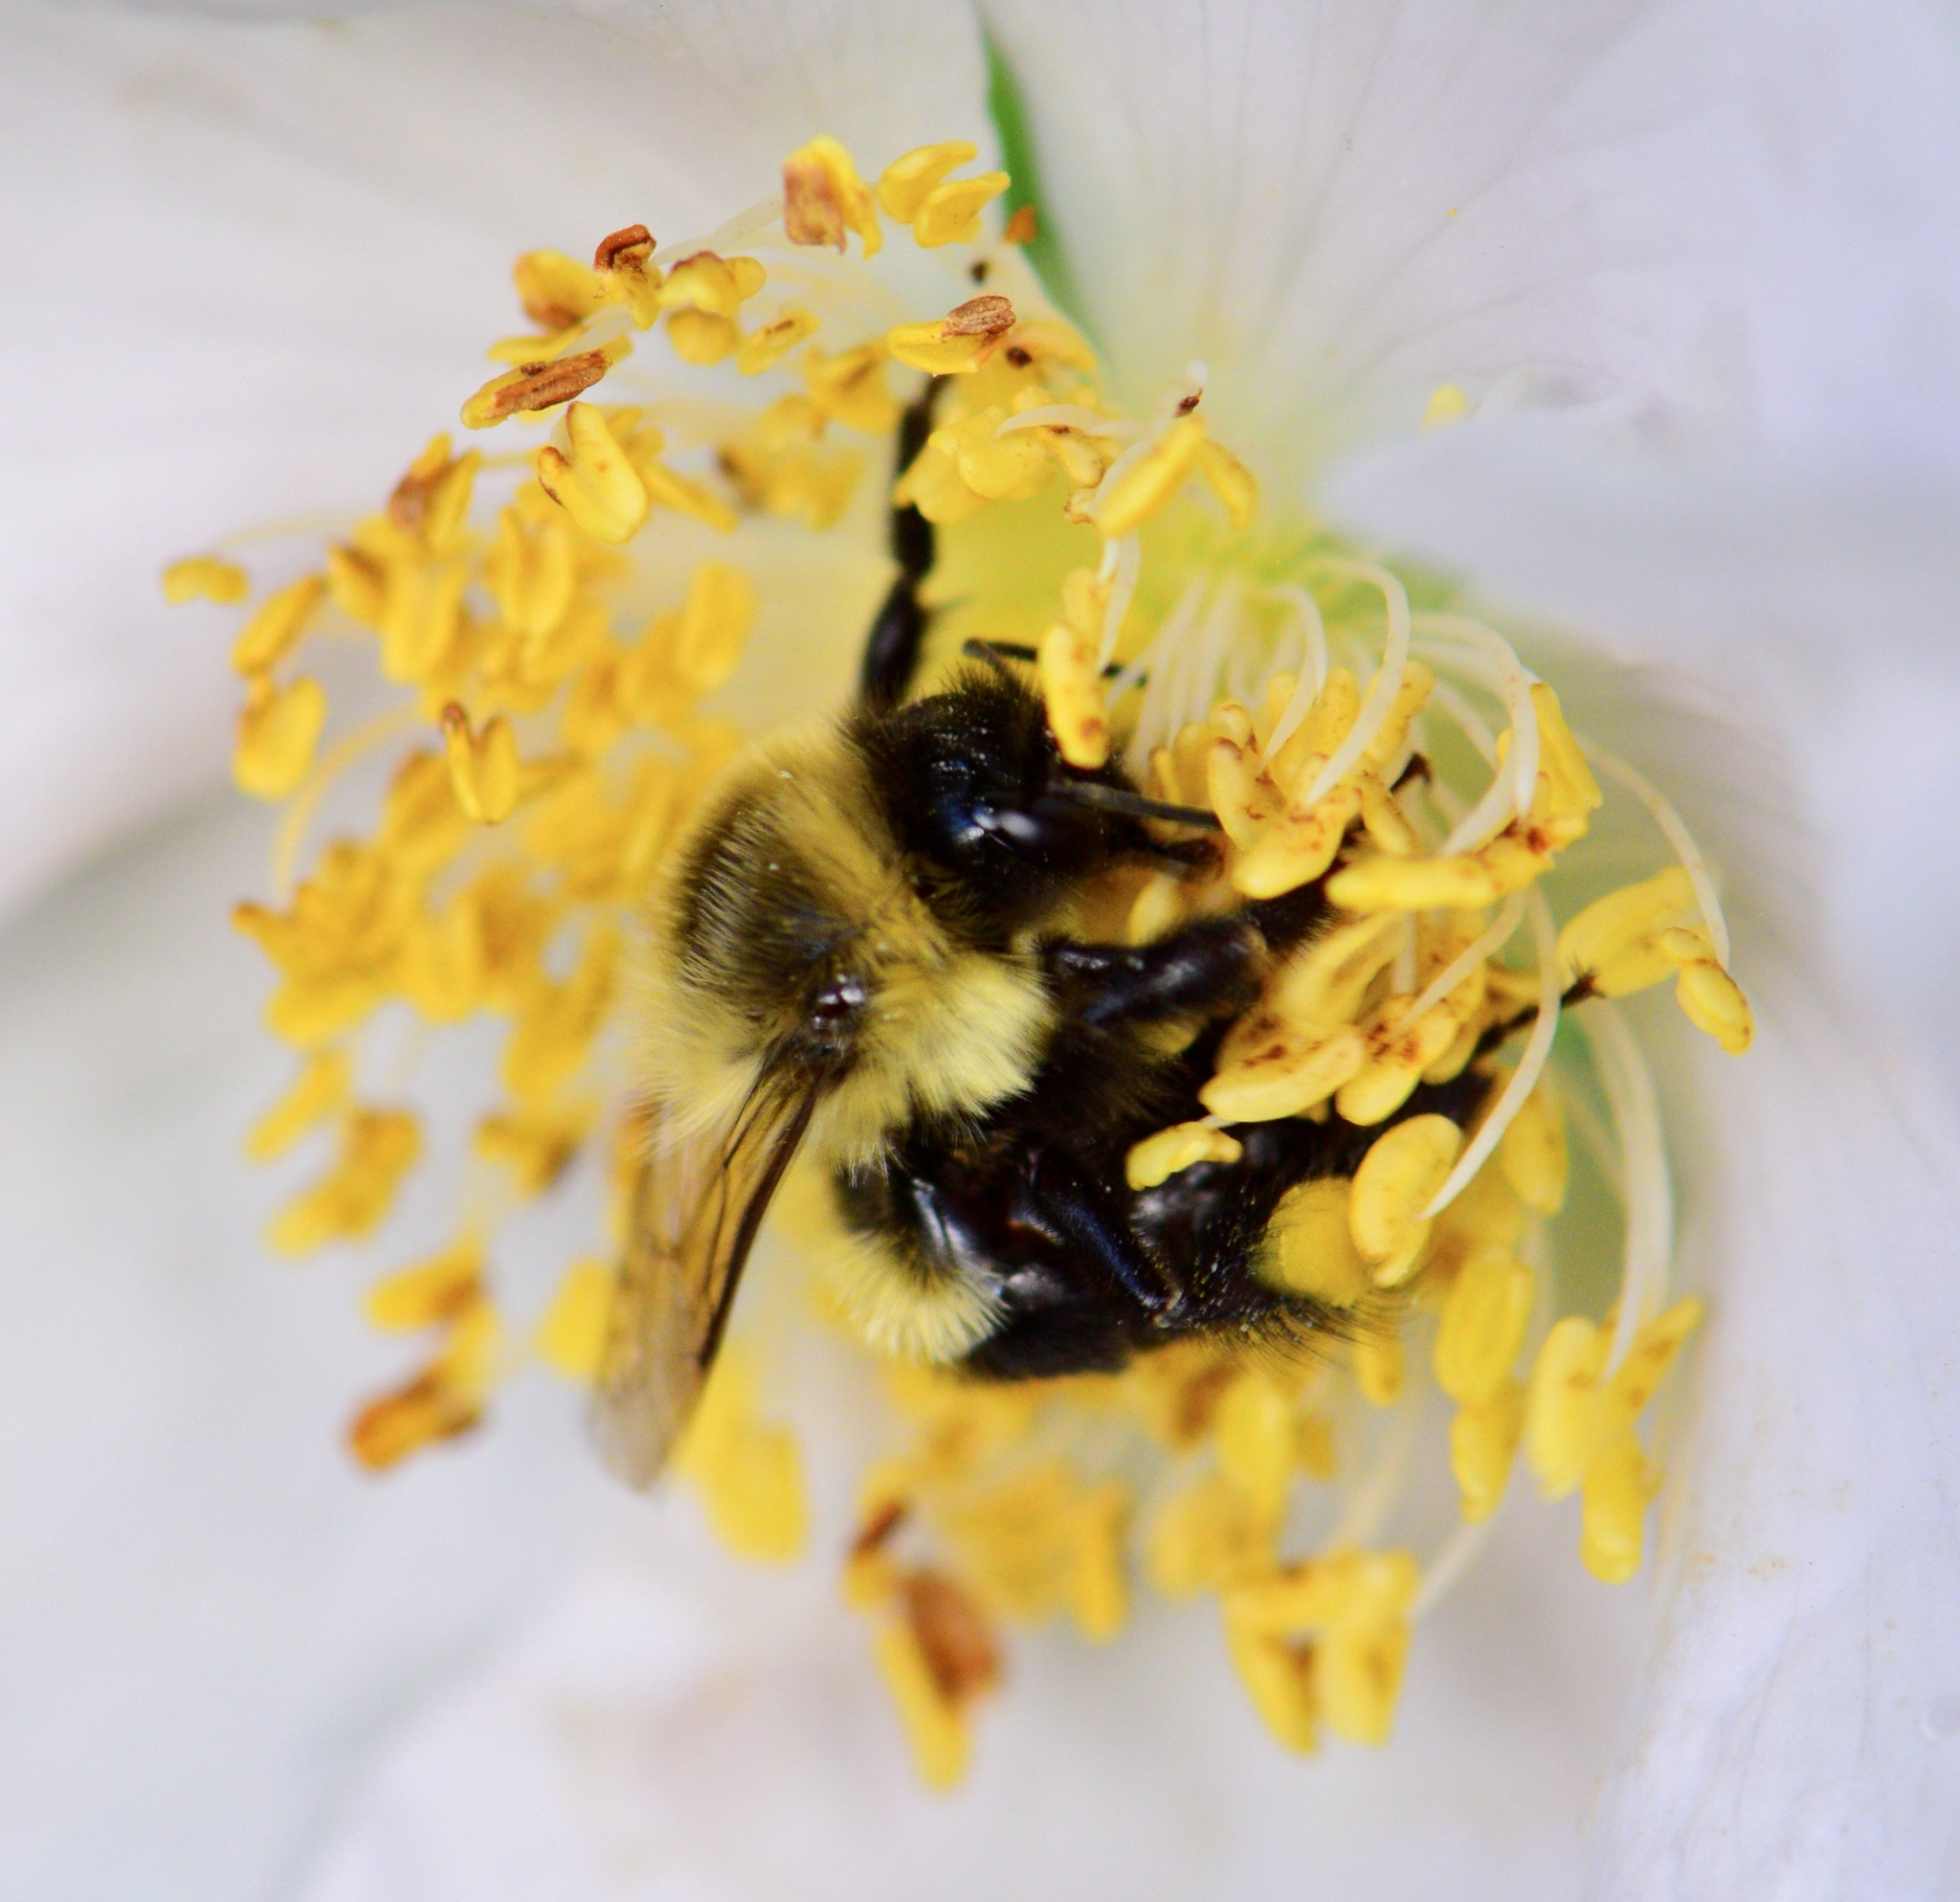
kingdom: Animalia
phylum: Arthropoda
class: Insecta
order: Hymenoptera
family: Apidae
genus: Bombus
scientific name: Bombus impatiens
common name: Common eastern bumble bee
